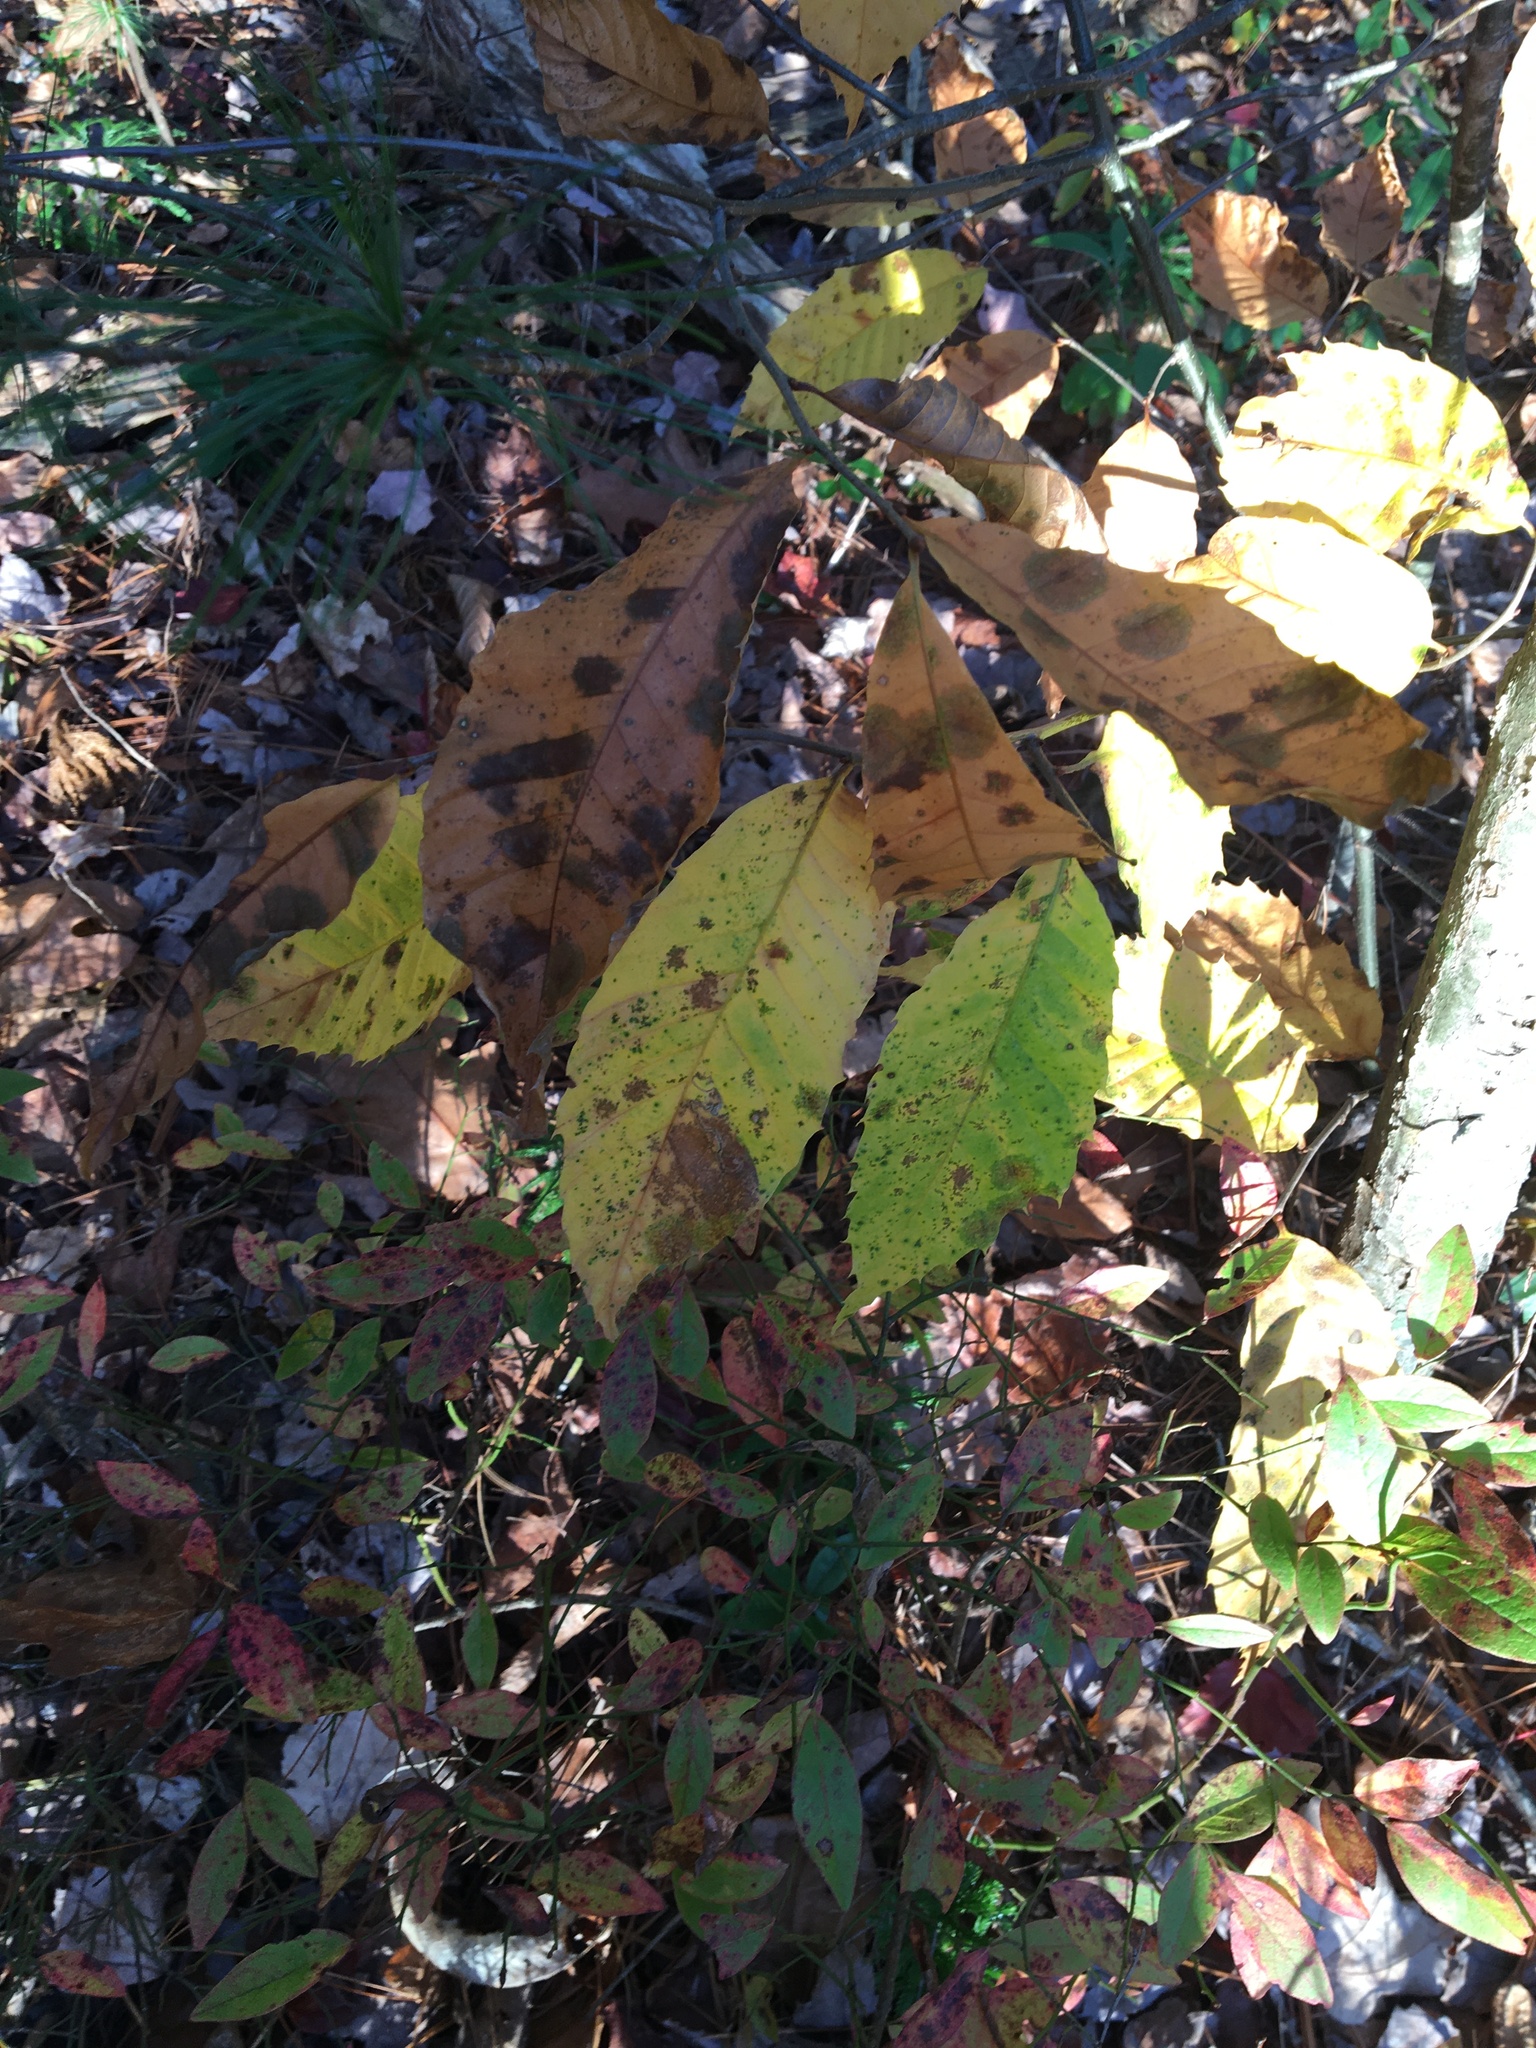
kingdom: Plantae
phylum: Tracheophyta
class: Magnoliopsida
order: Fagales
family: Fagaceae
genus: Castanea
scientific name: Castanea dentata
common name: American chestnut
